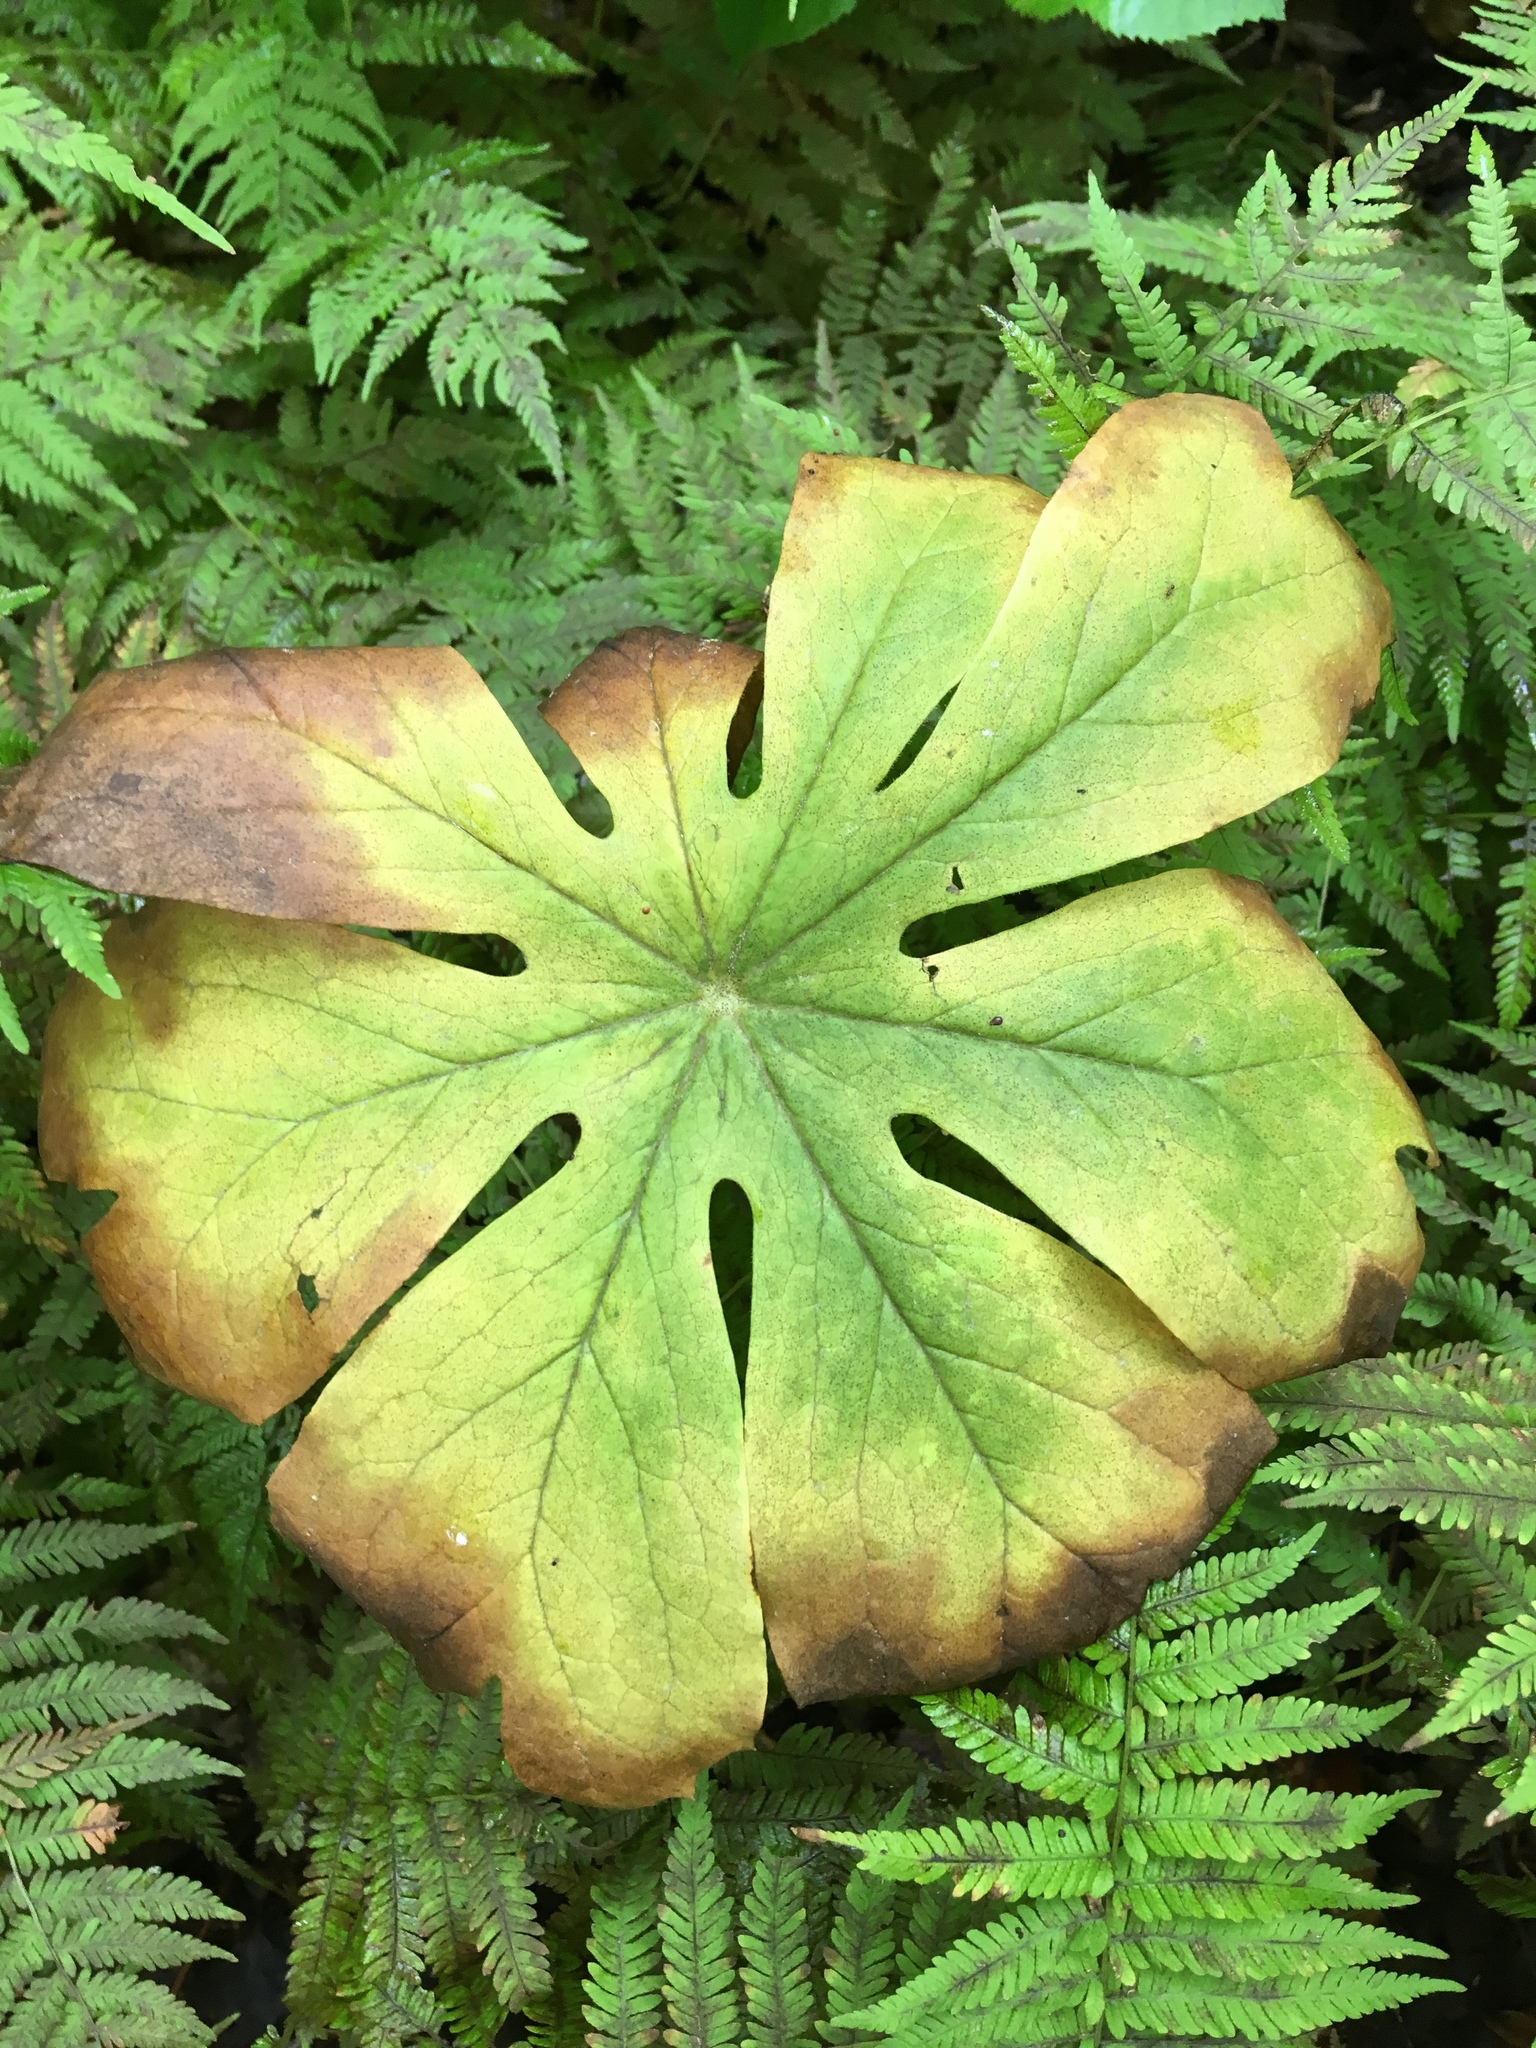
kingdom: Plantae
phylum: Tracheophyta
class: Magnoliopsida
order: Ranunculales
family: Berberidaceae
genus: Podophyllum
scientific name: Podophyllum peltatum
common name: Wild mandrake
